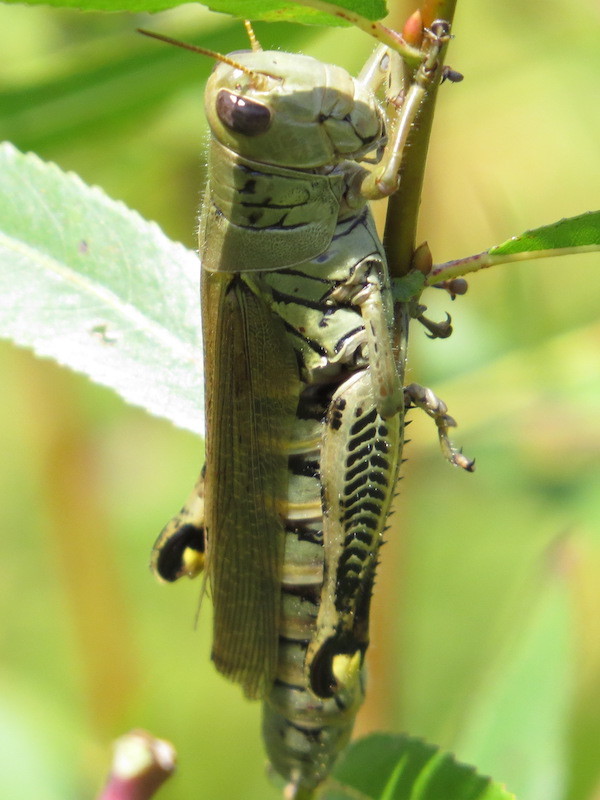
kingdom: Animalia
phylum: Arthropoda
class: Insecta
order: Orthoptera
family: Acrididae
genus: Melanoplus
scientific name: Melanoplus differentialis
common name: Differential grasshopper
